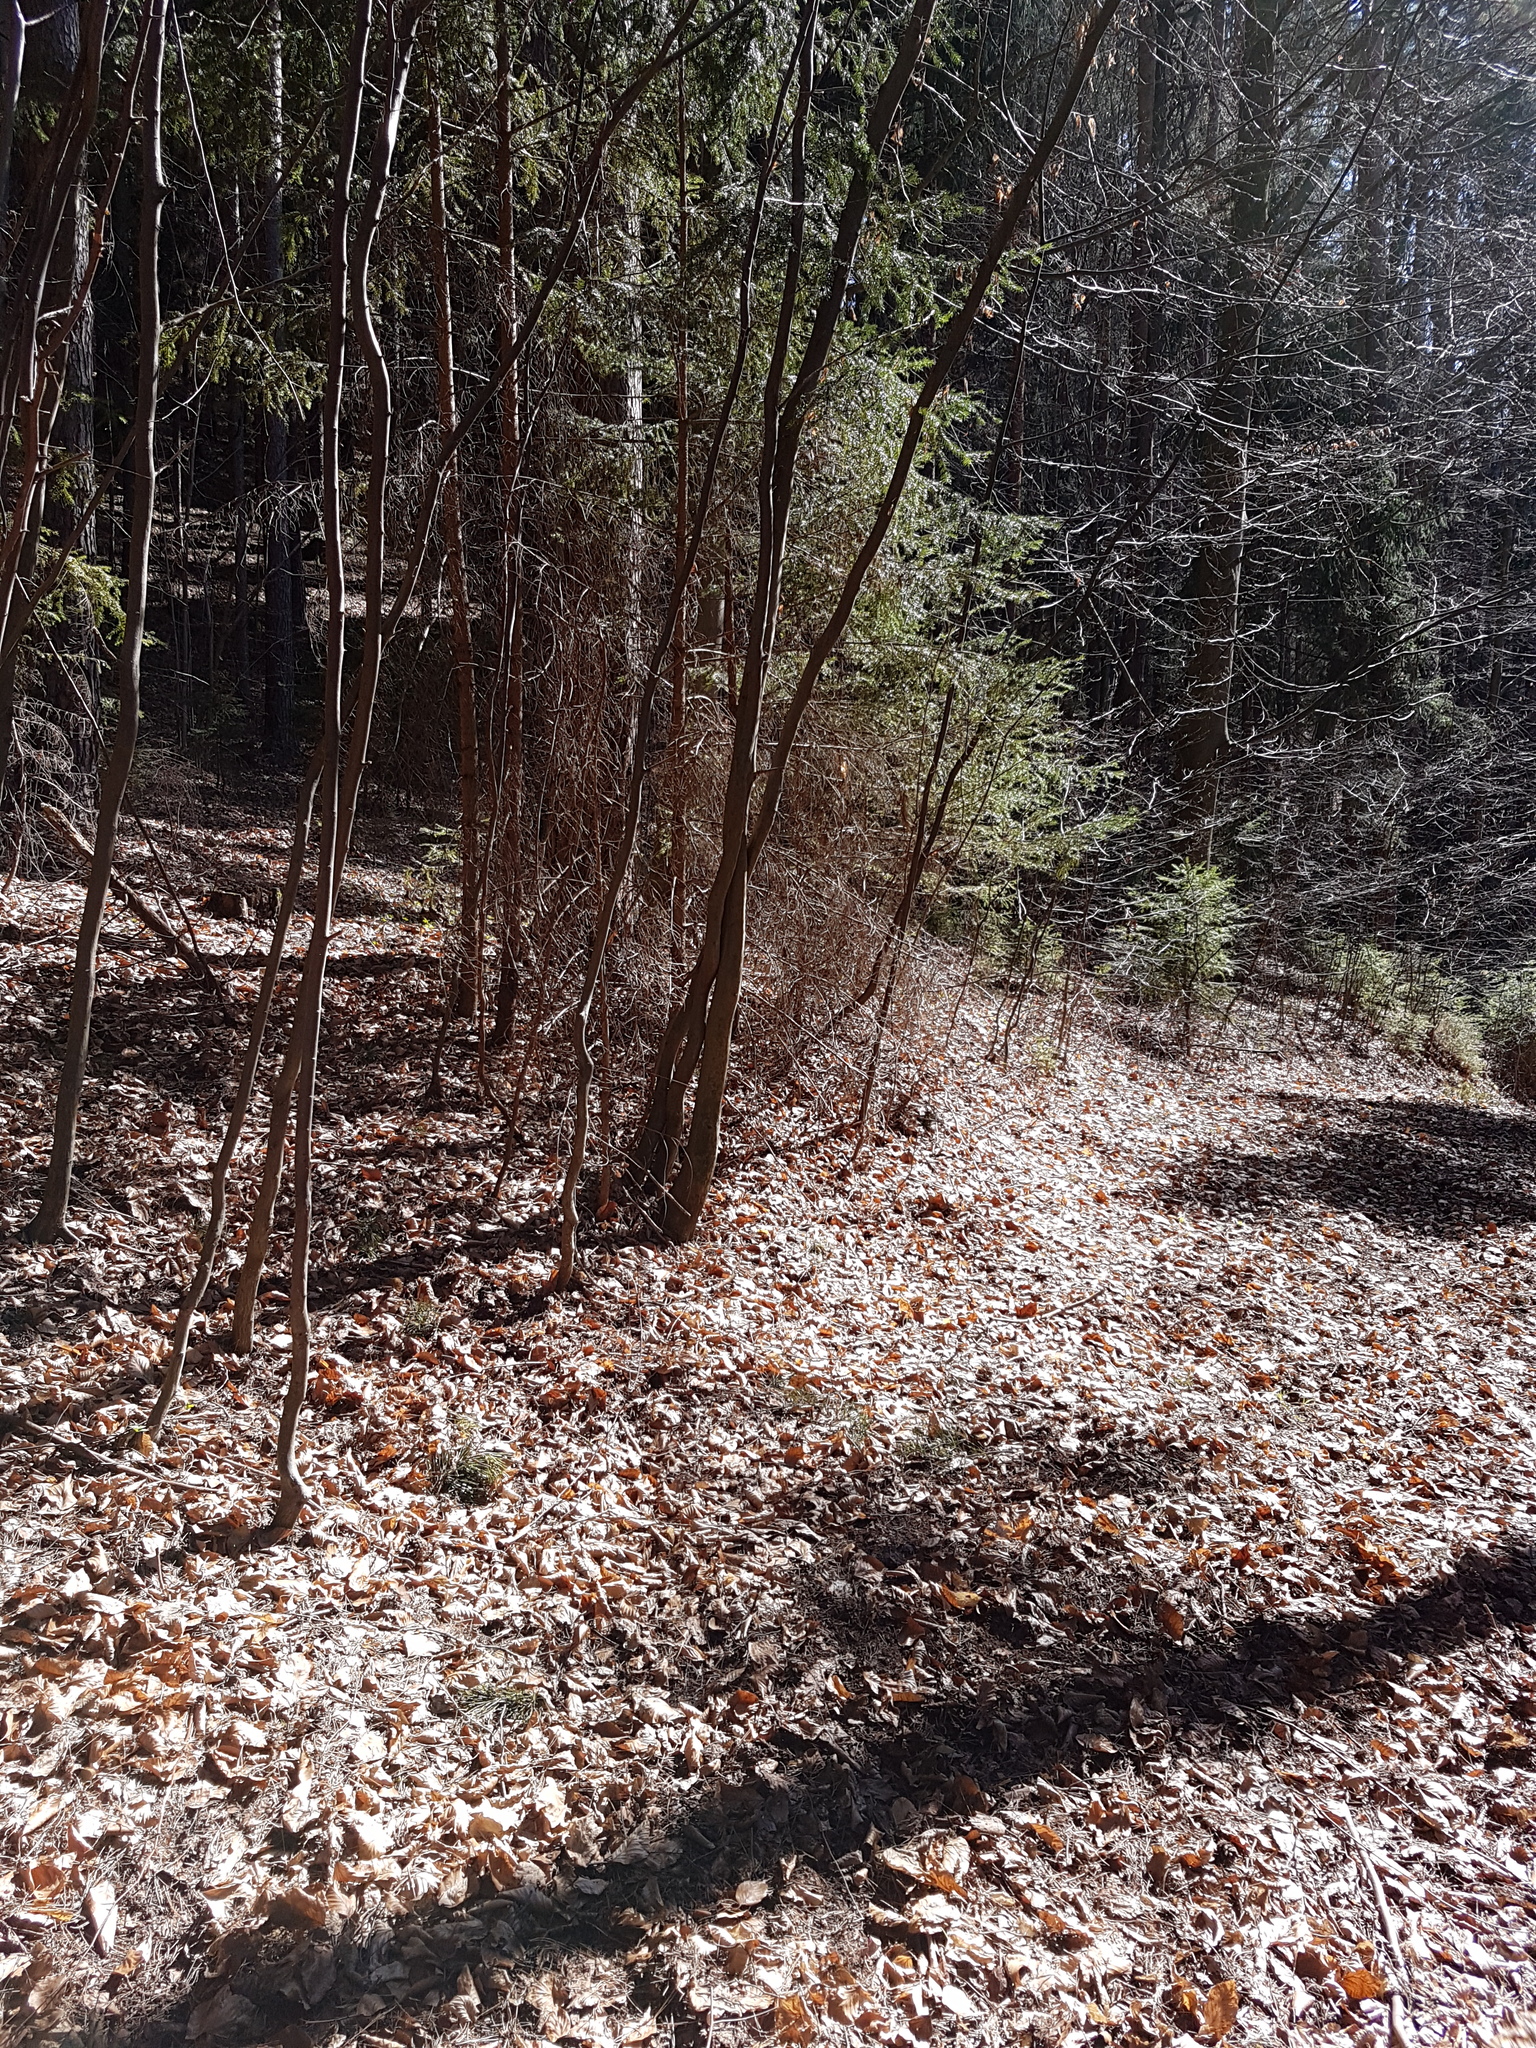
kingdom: Animalia
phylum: Arthropoda
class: Insecta
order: Diptera
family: Lonchaeidae
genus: Earomyia
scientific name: Earomyia lonchaeoides
